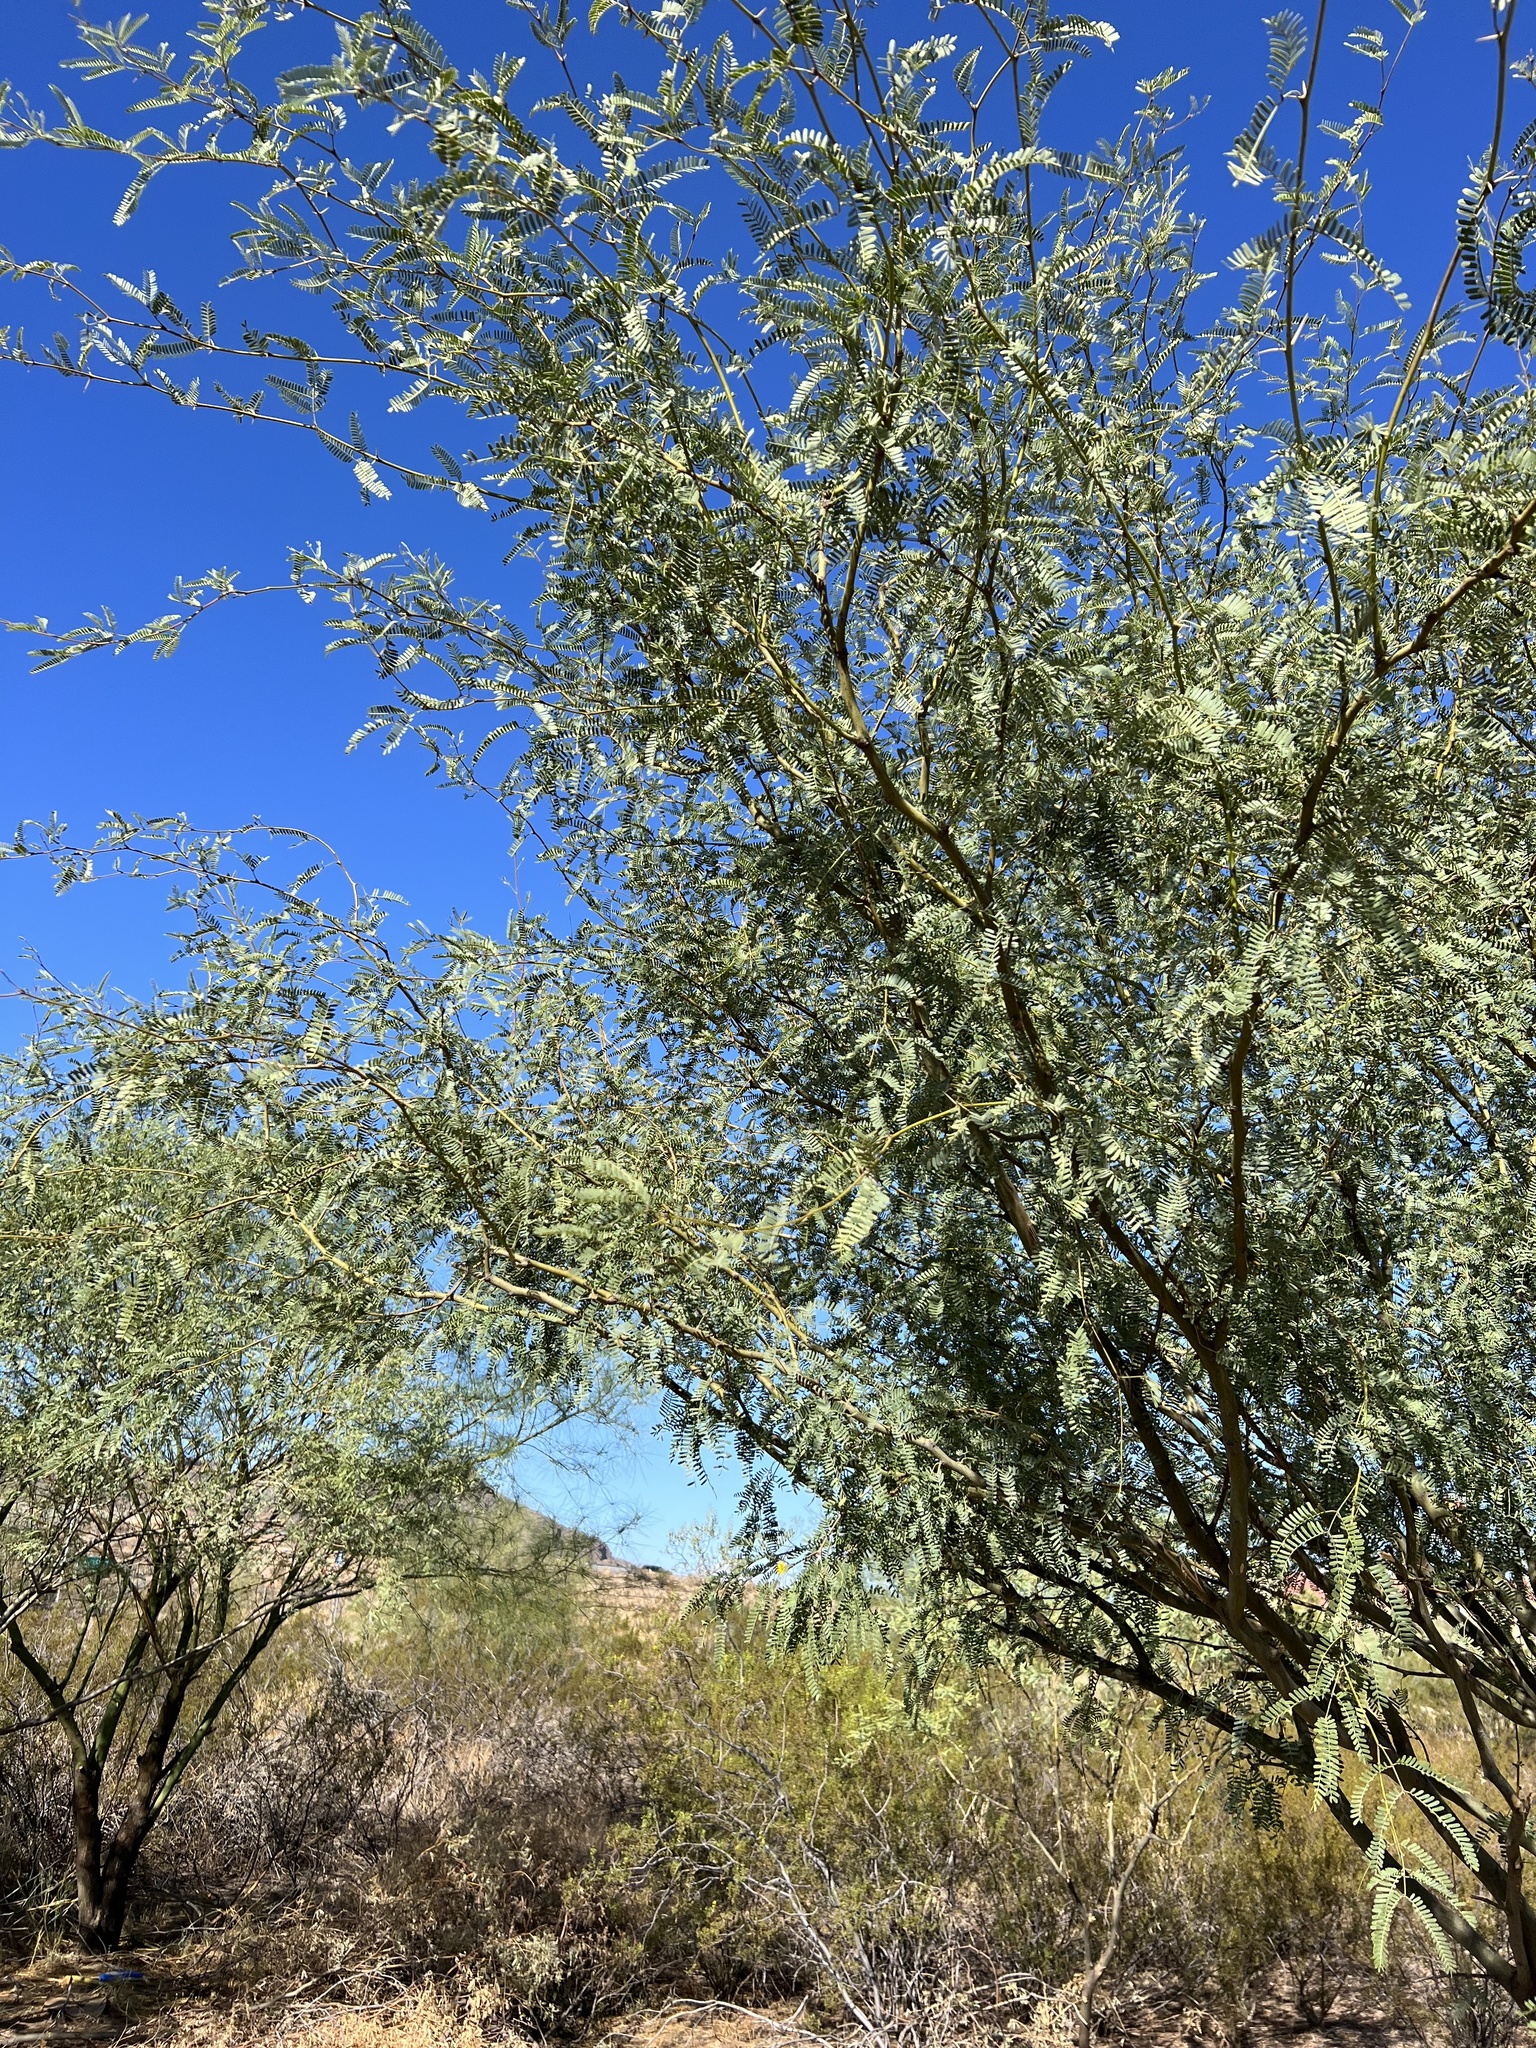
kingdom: Plantae
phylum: Tracheophyta
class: Magnoliopsida
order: Fabales
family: Fabaceae
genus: Prosopis
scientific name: Prosopis velutina
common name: Velvet mesquite
